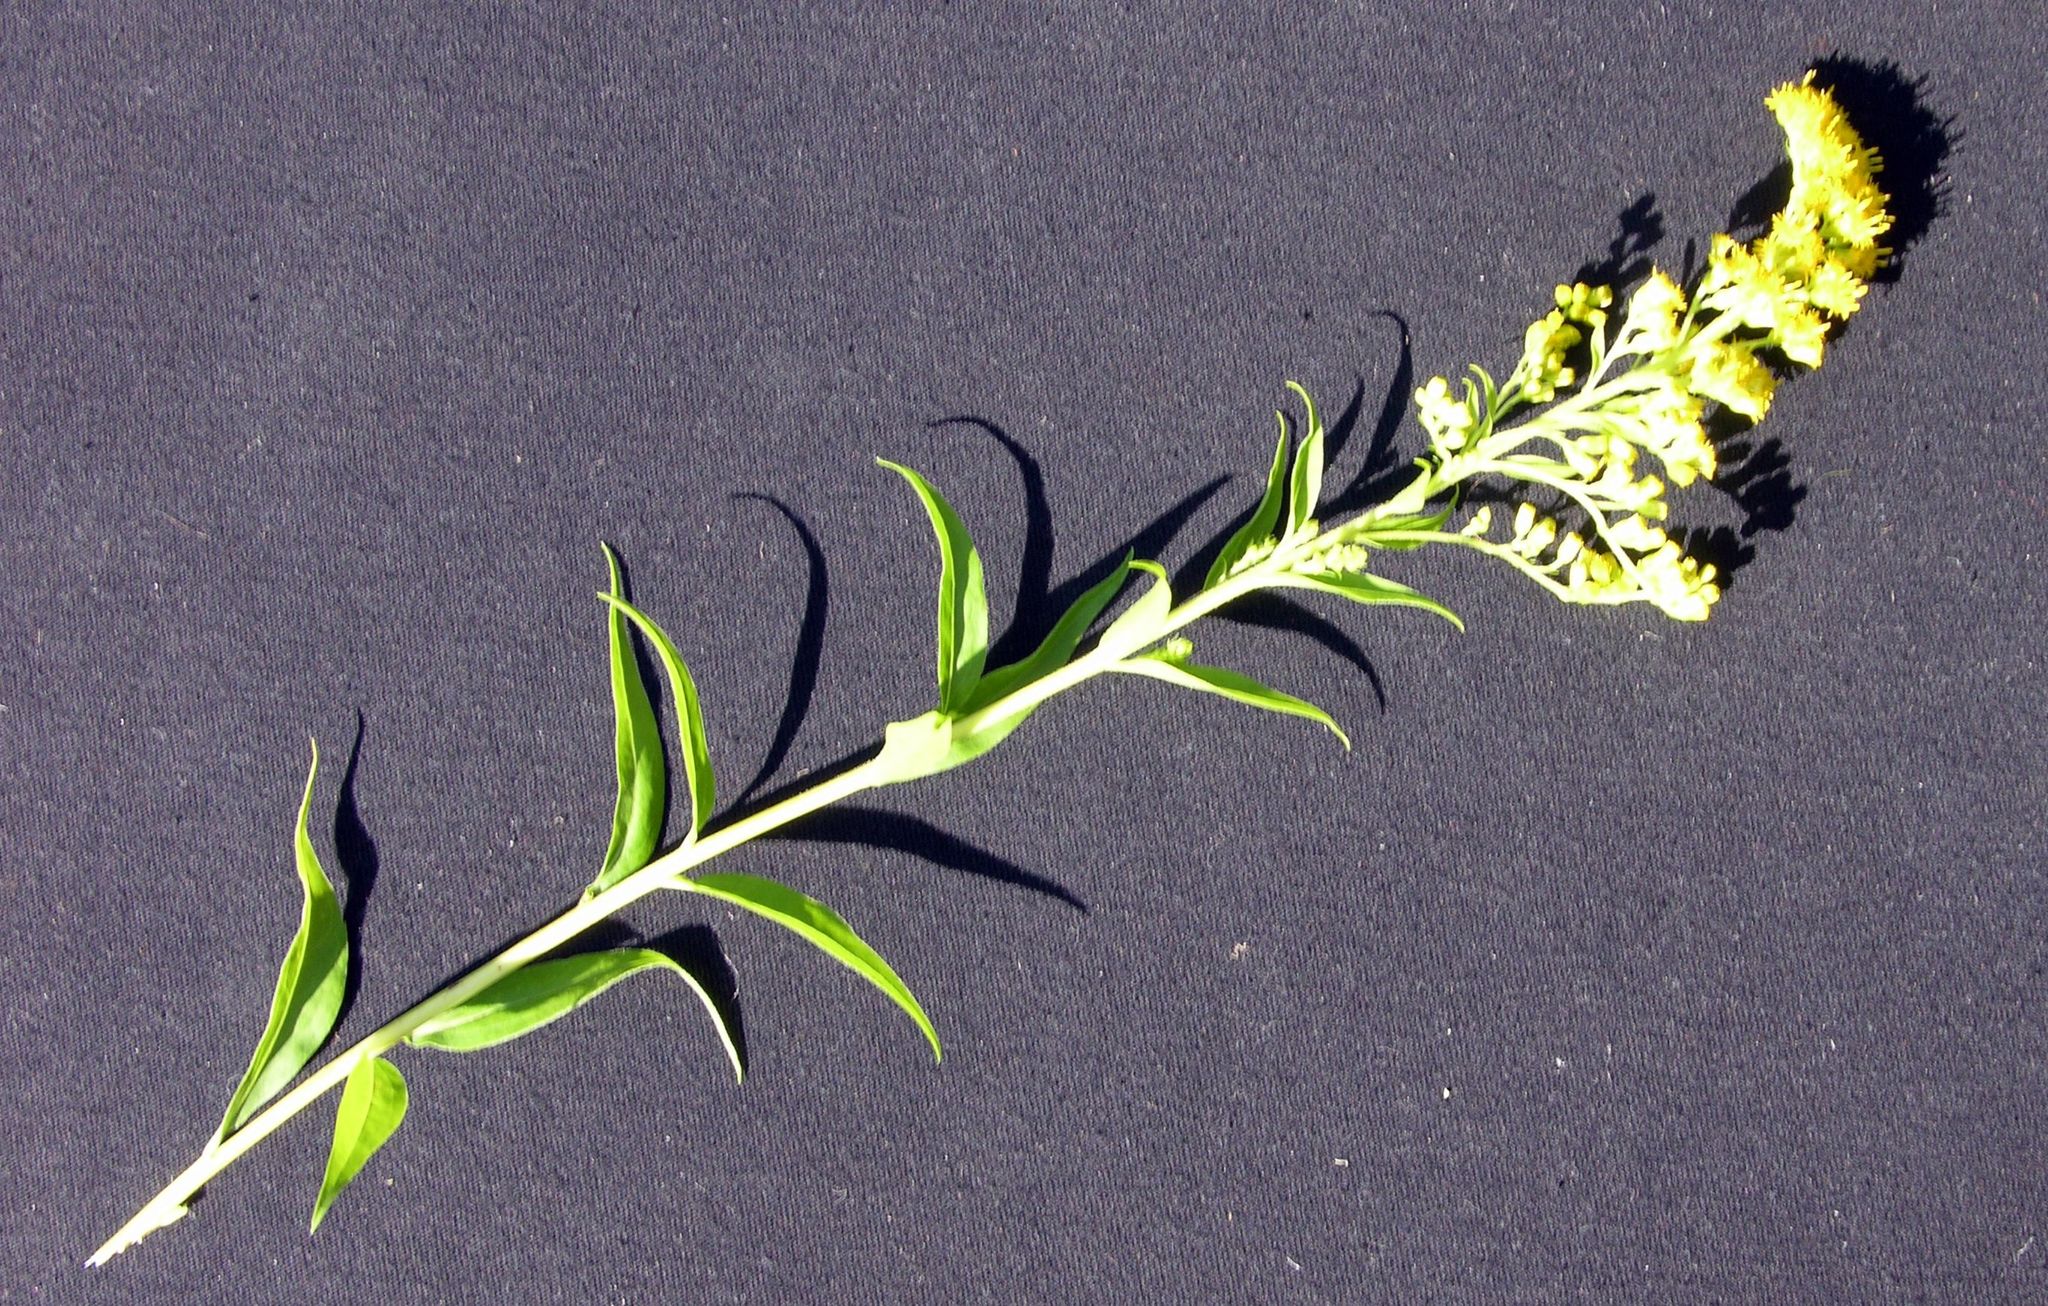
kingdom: Plantae
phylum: Tracheophyta
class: Magnoliopsida
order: Asterales
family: Asteraceae
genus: Solidago
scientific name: Solidago canadensis
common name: Canada goldenrod
